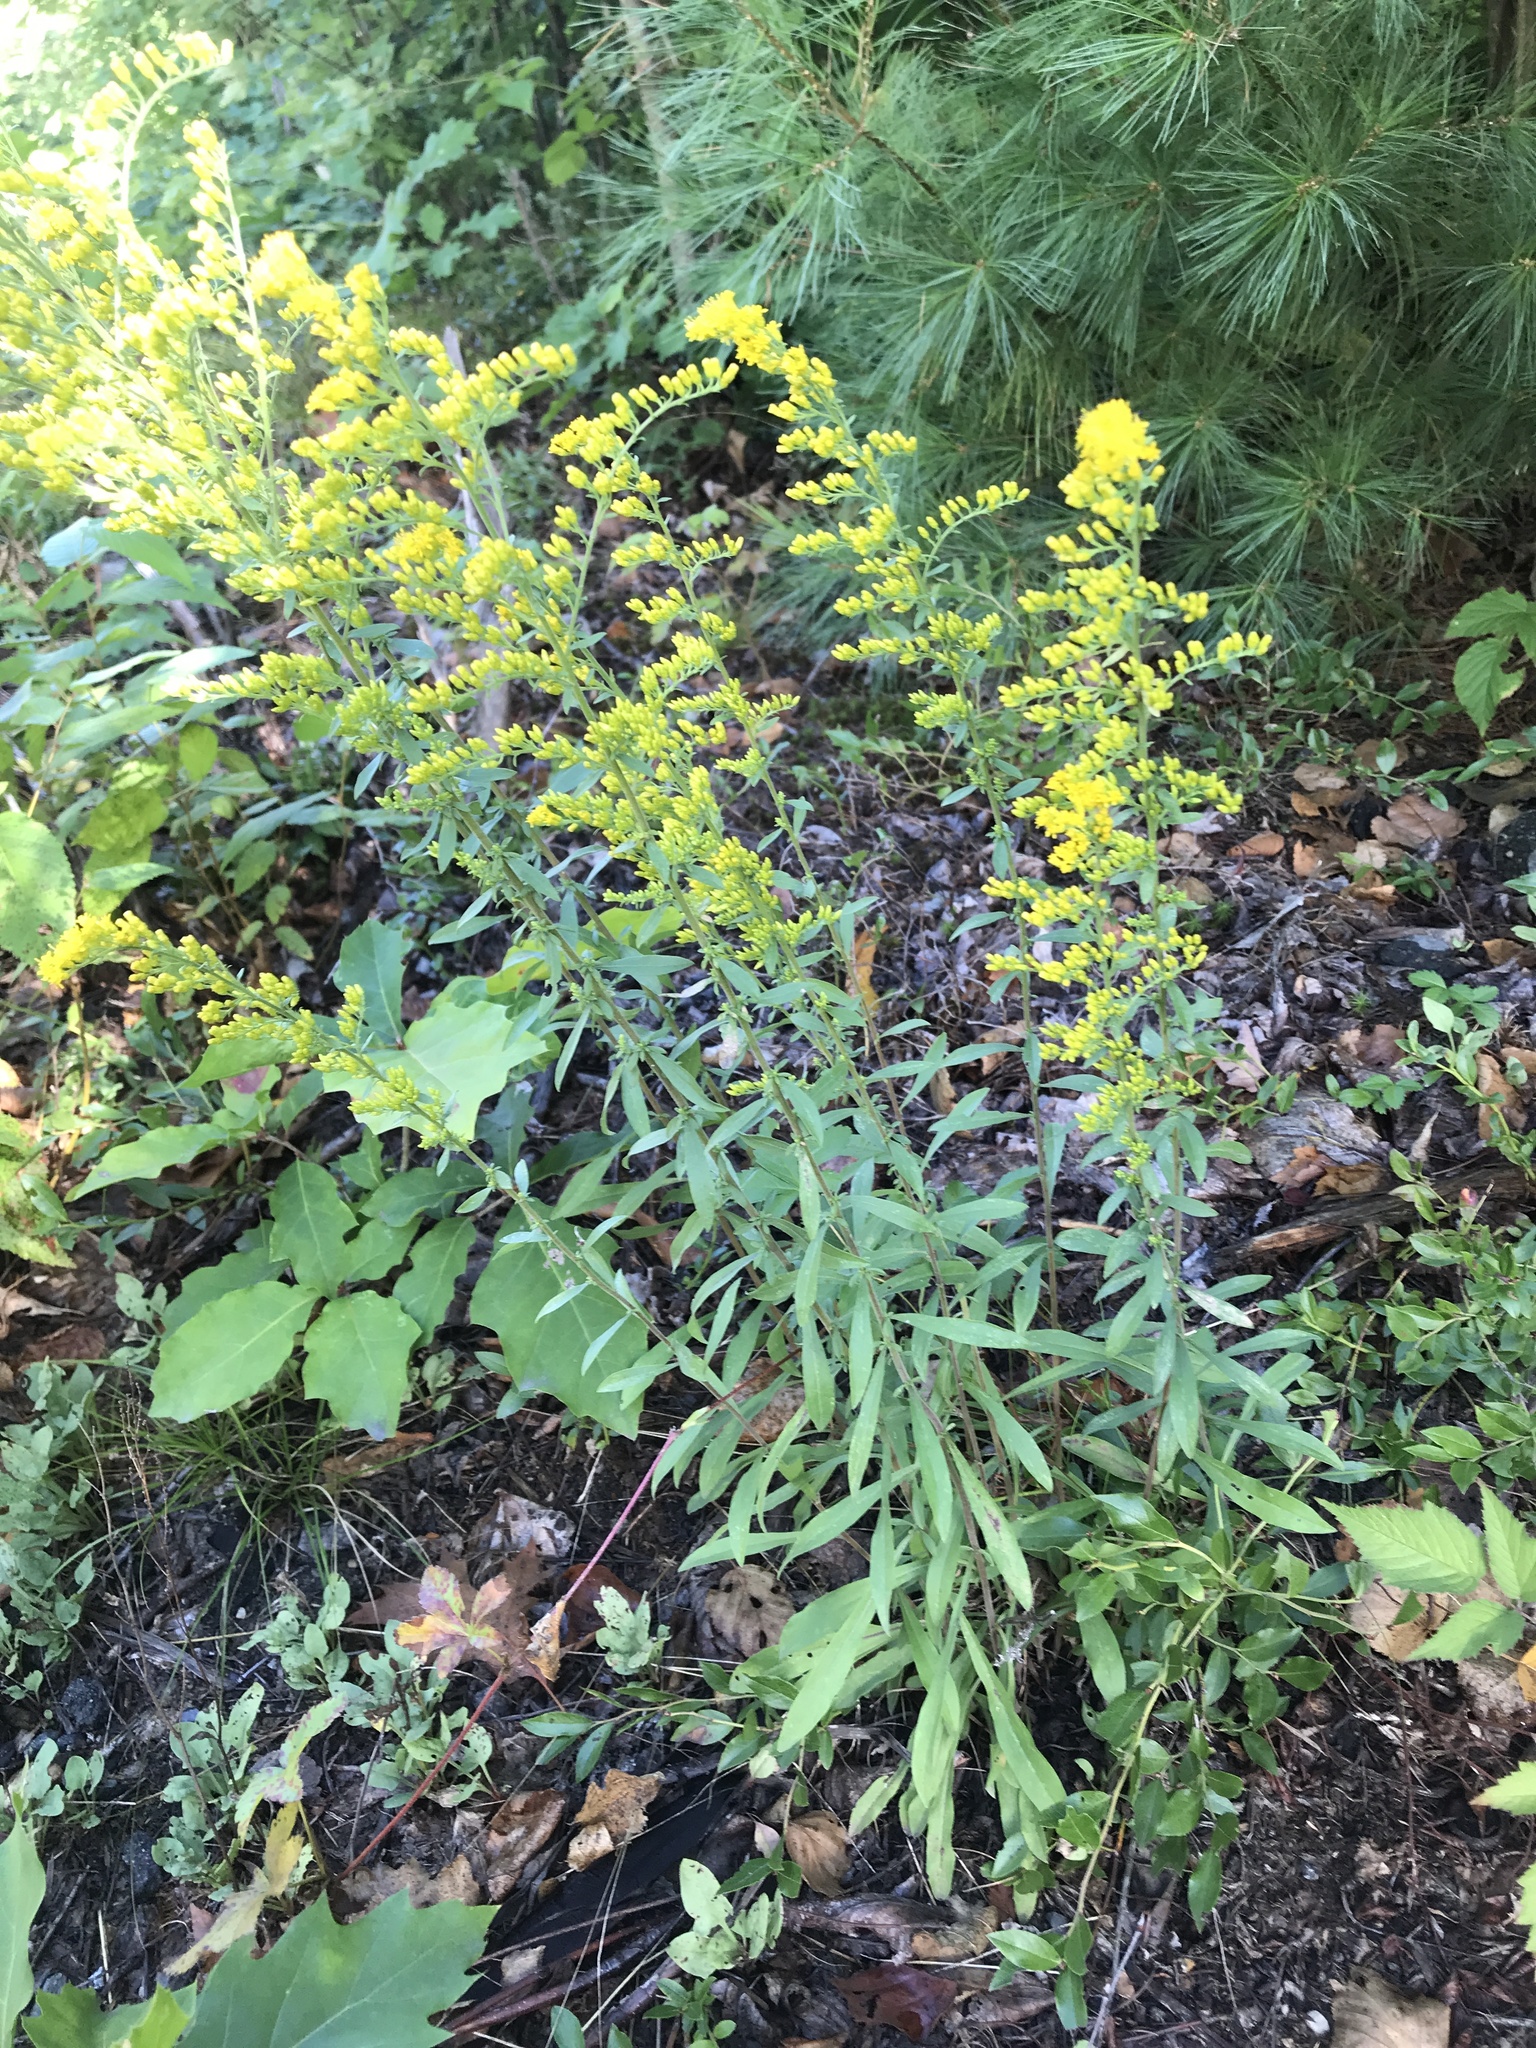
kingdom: Plantae
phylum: Tracheophyta
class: Magnoliopsida
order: Asterales
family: Asteraceae
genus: Solidago
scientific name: Solidago nemoralis
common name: Grey goldenrod
